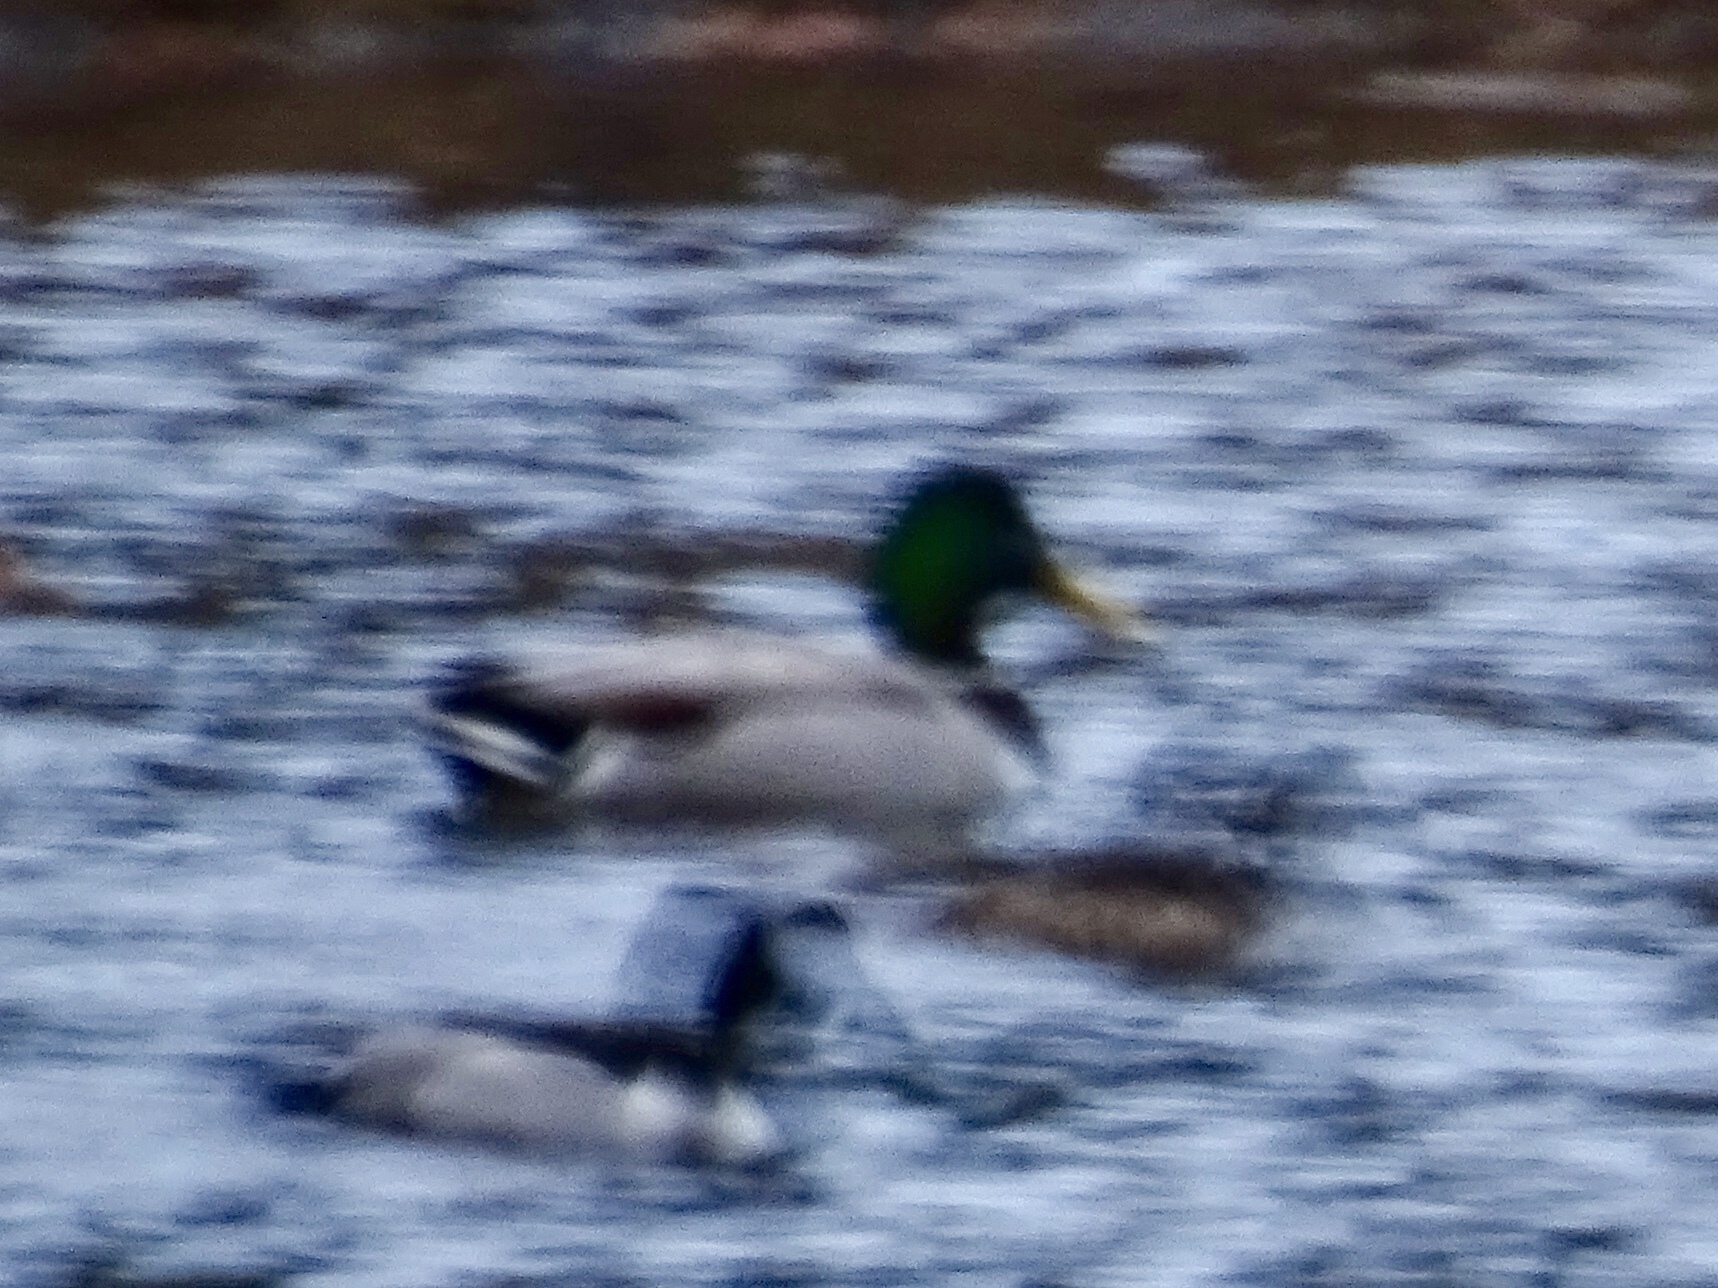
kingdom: Animalia
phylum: Chordata
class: Aves
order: Anseriformes
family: Anatidae
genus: Anas
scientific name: Anas platyrhynchos
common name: Mallard
